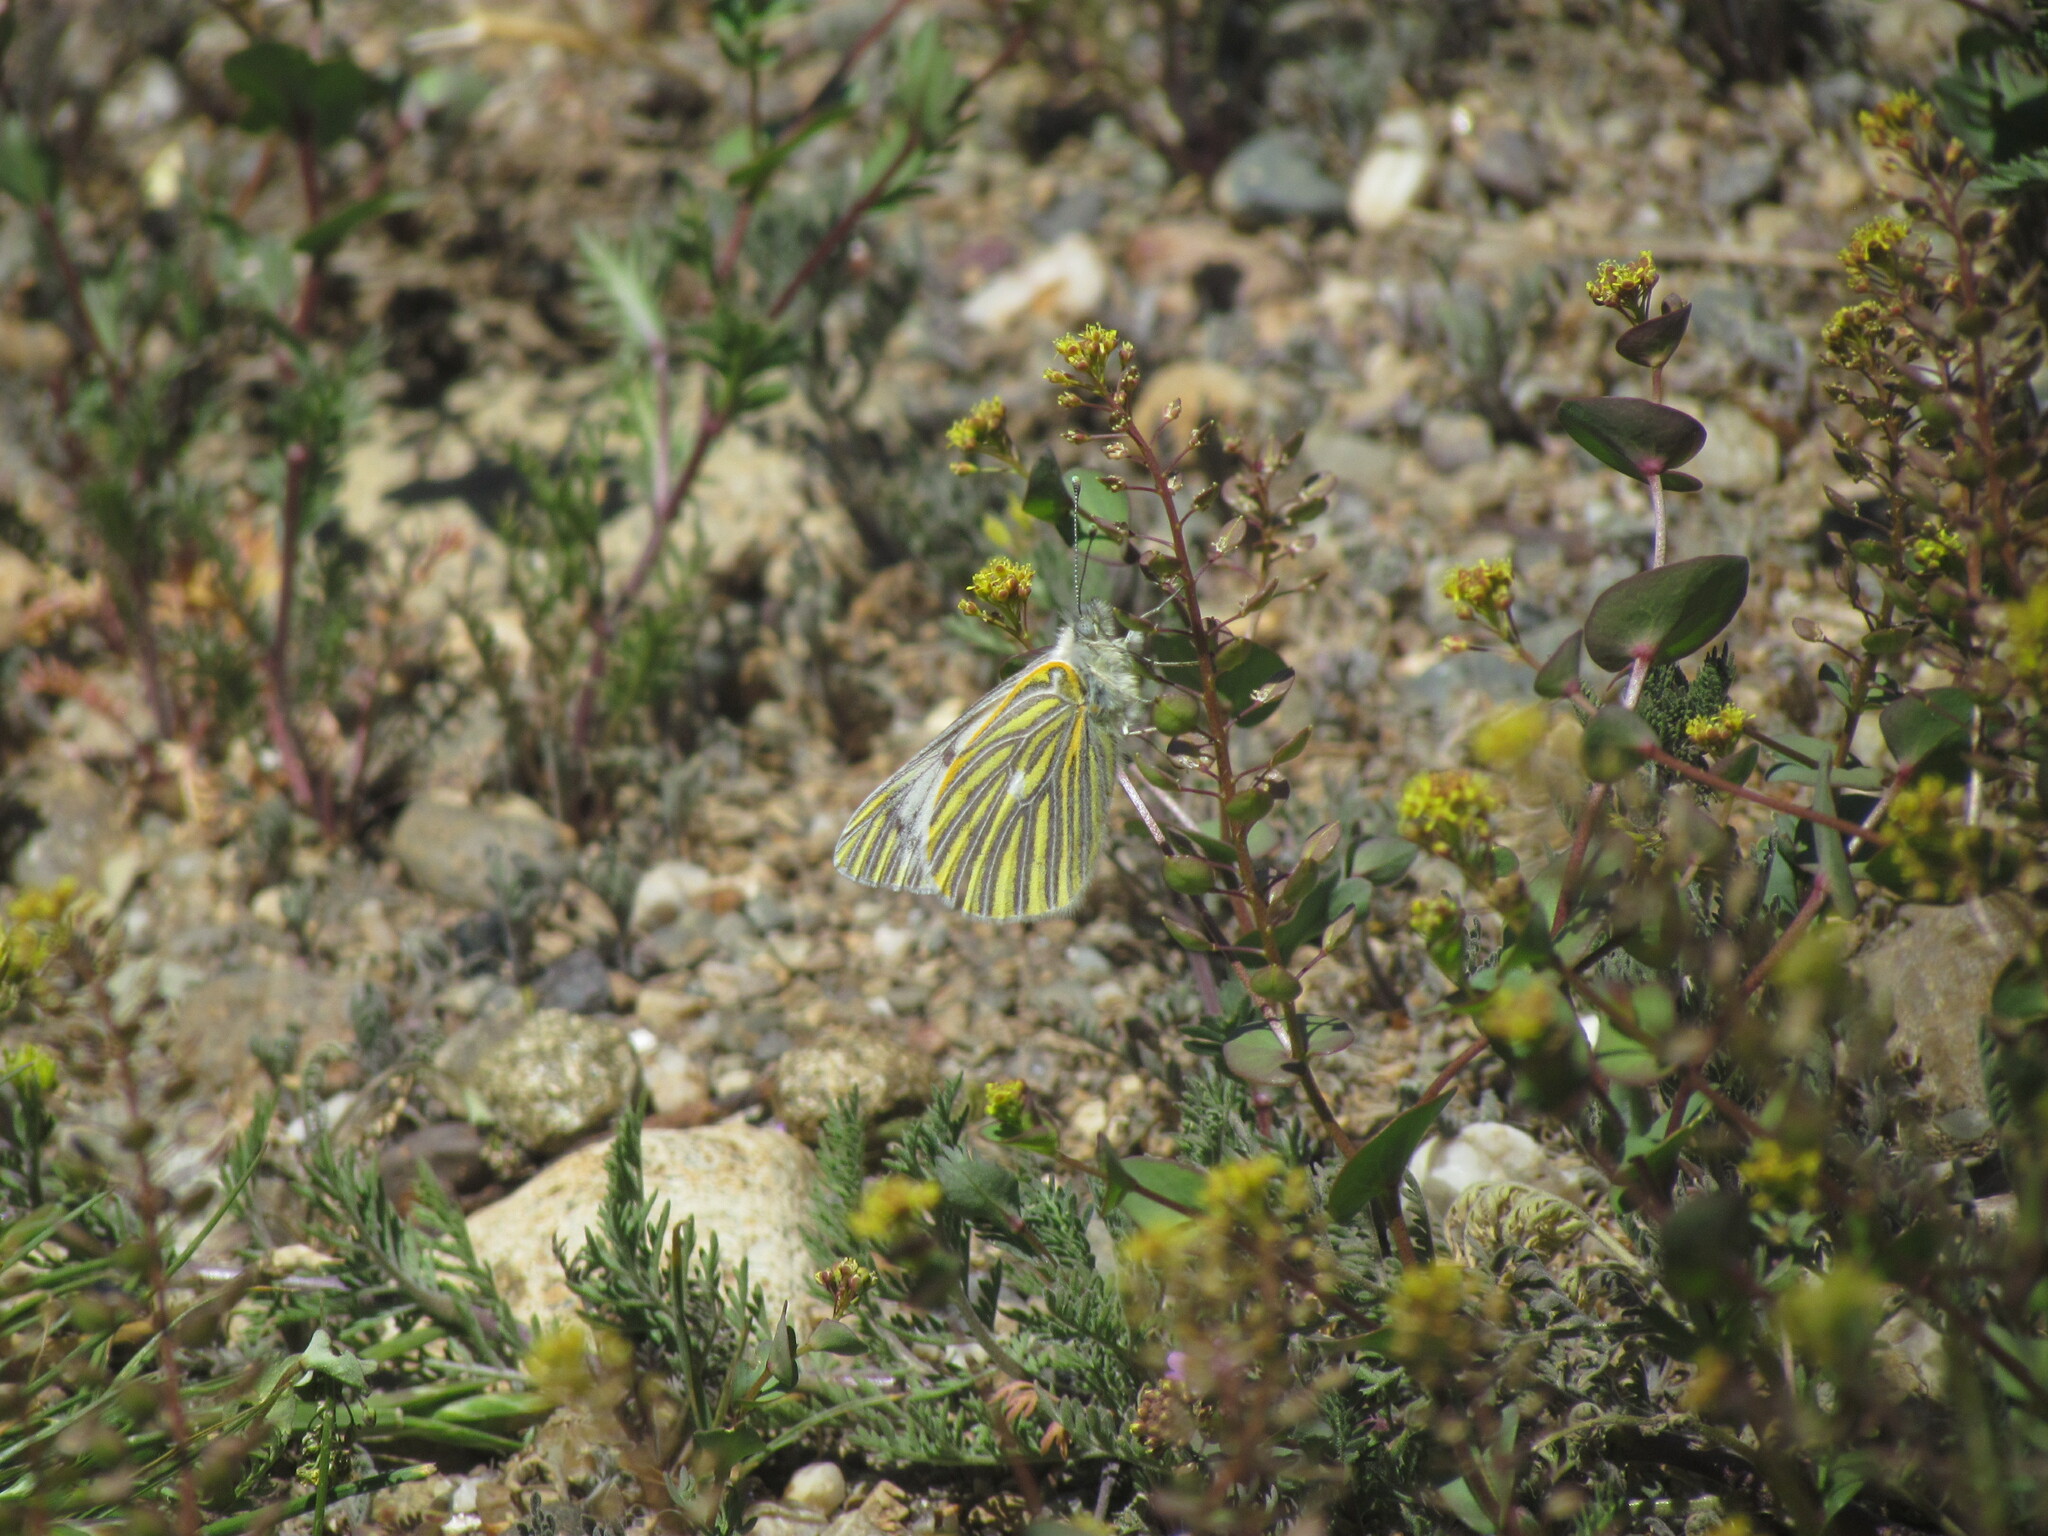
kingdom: Animalia
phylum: Arthropoda
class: Insecta
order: Lepidoptera
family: Pieridae
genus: Tatochila
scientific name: Tatochila mercedis
